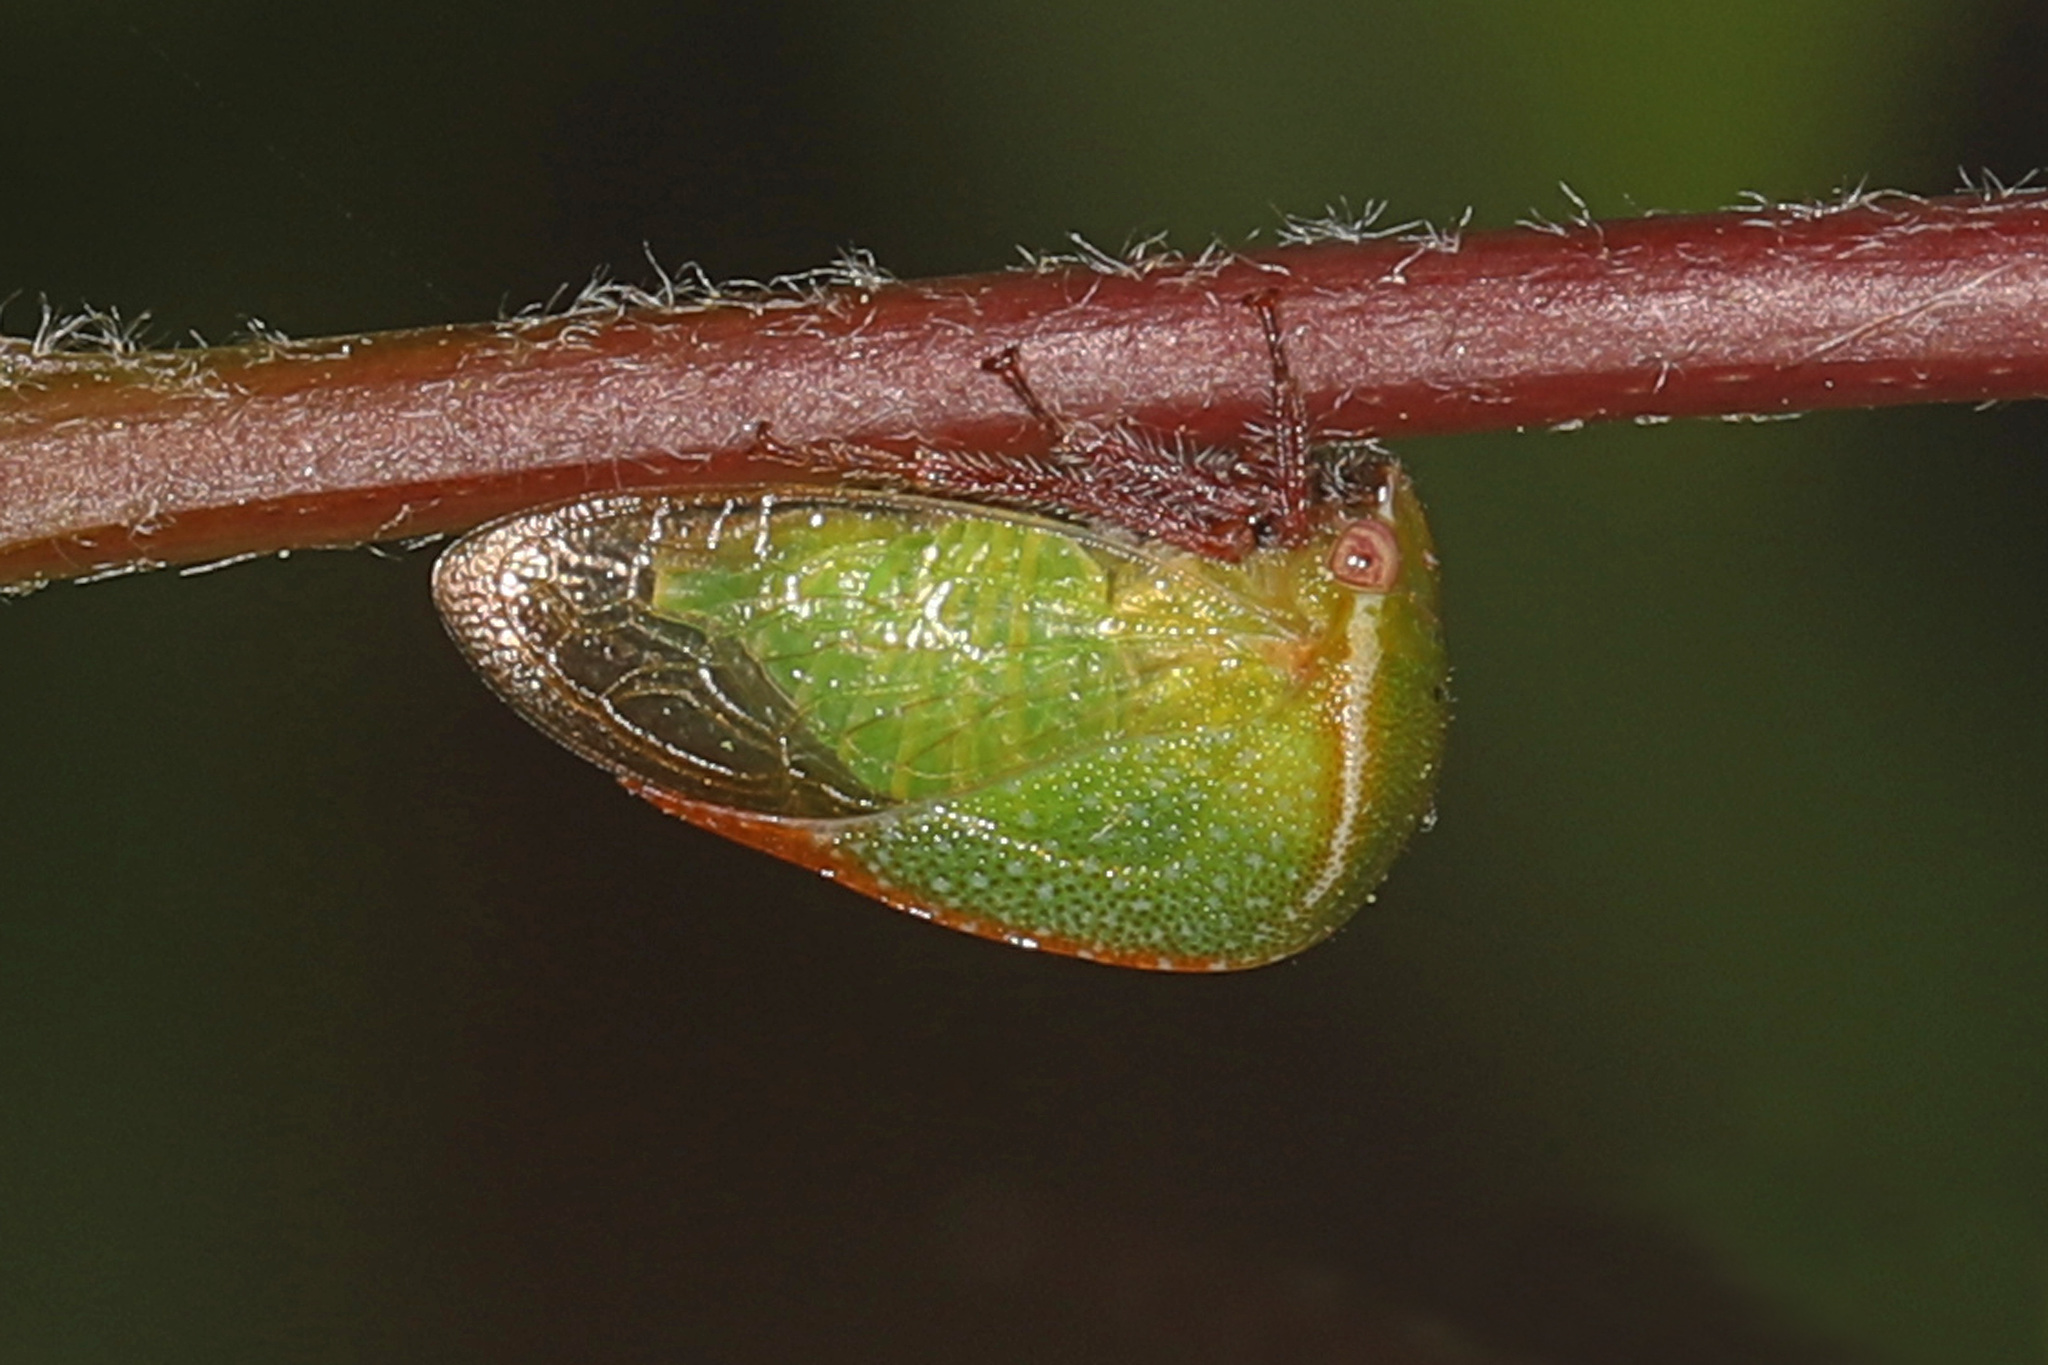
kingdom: Animalia
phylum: Arthropoda
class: Insecta
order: Hemiptera
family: Membracidae
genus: Stictocephala
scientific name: Stictocephala lutea
